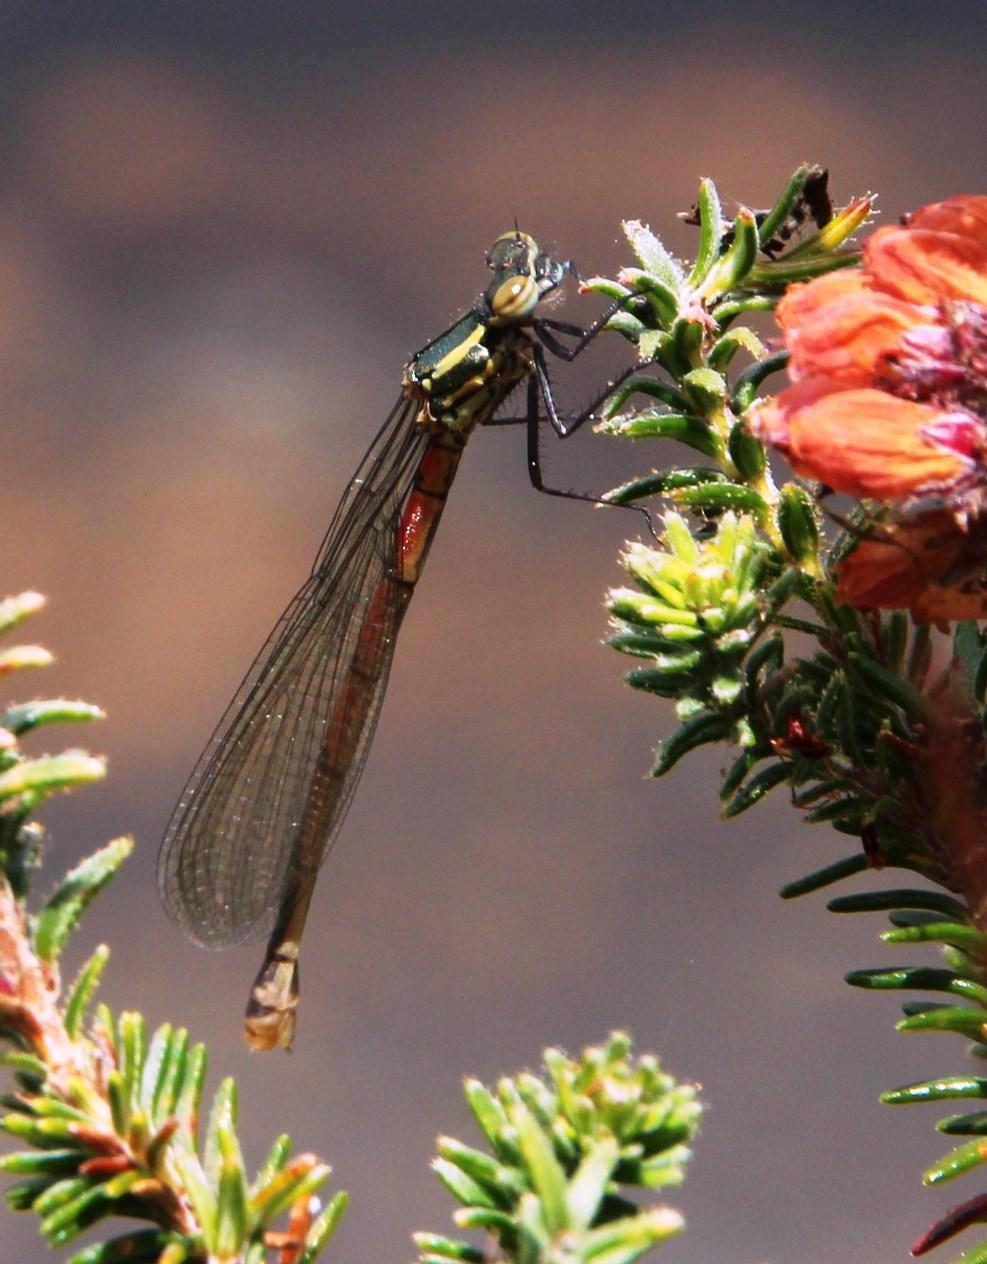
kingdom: Animalia
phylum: Arthropoda
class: Insecta
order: Odonata
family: Coenagrionidae
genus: Pyrrhosoma
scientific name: Pyrrhosoma nymphula
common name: Large red damsel
